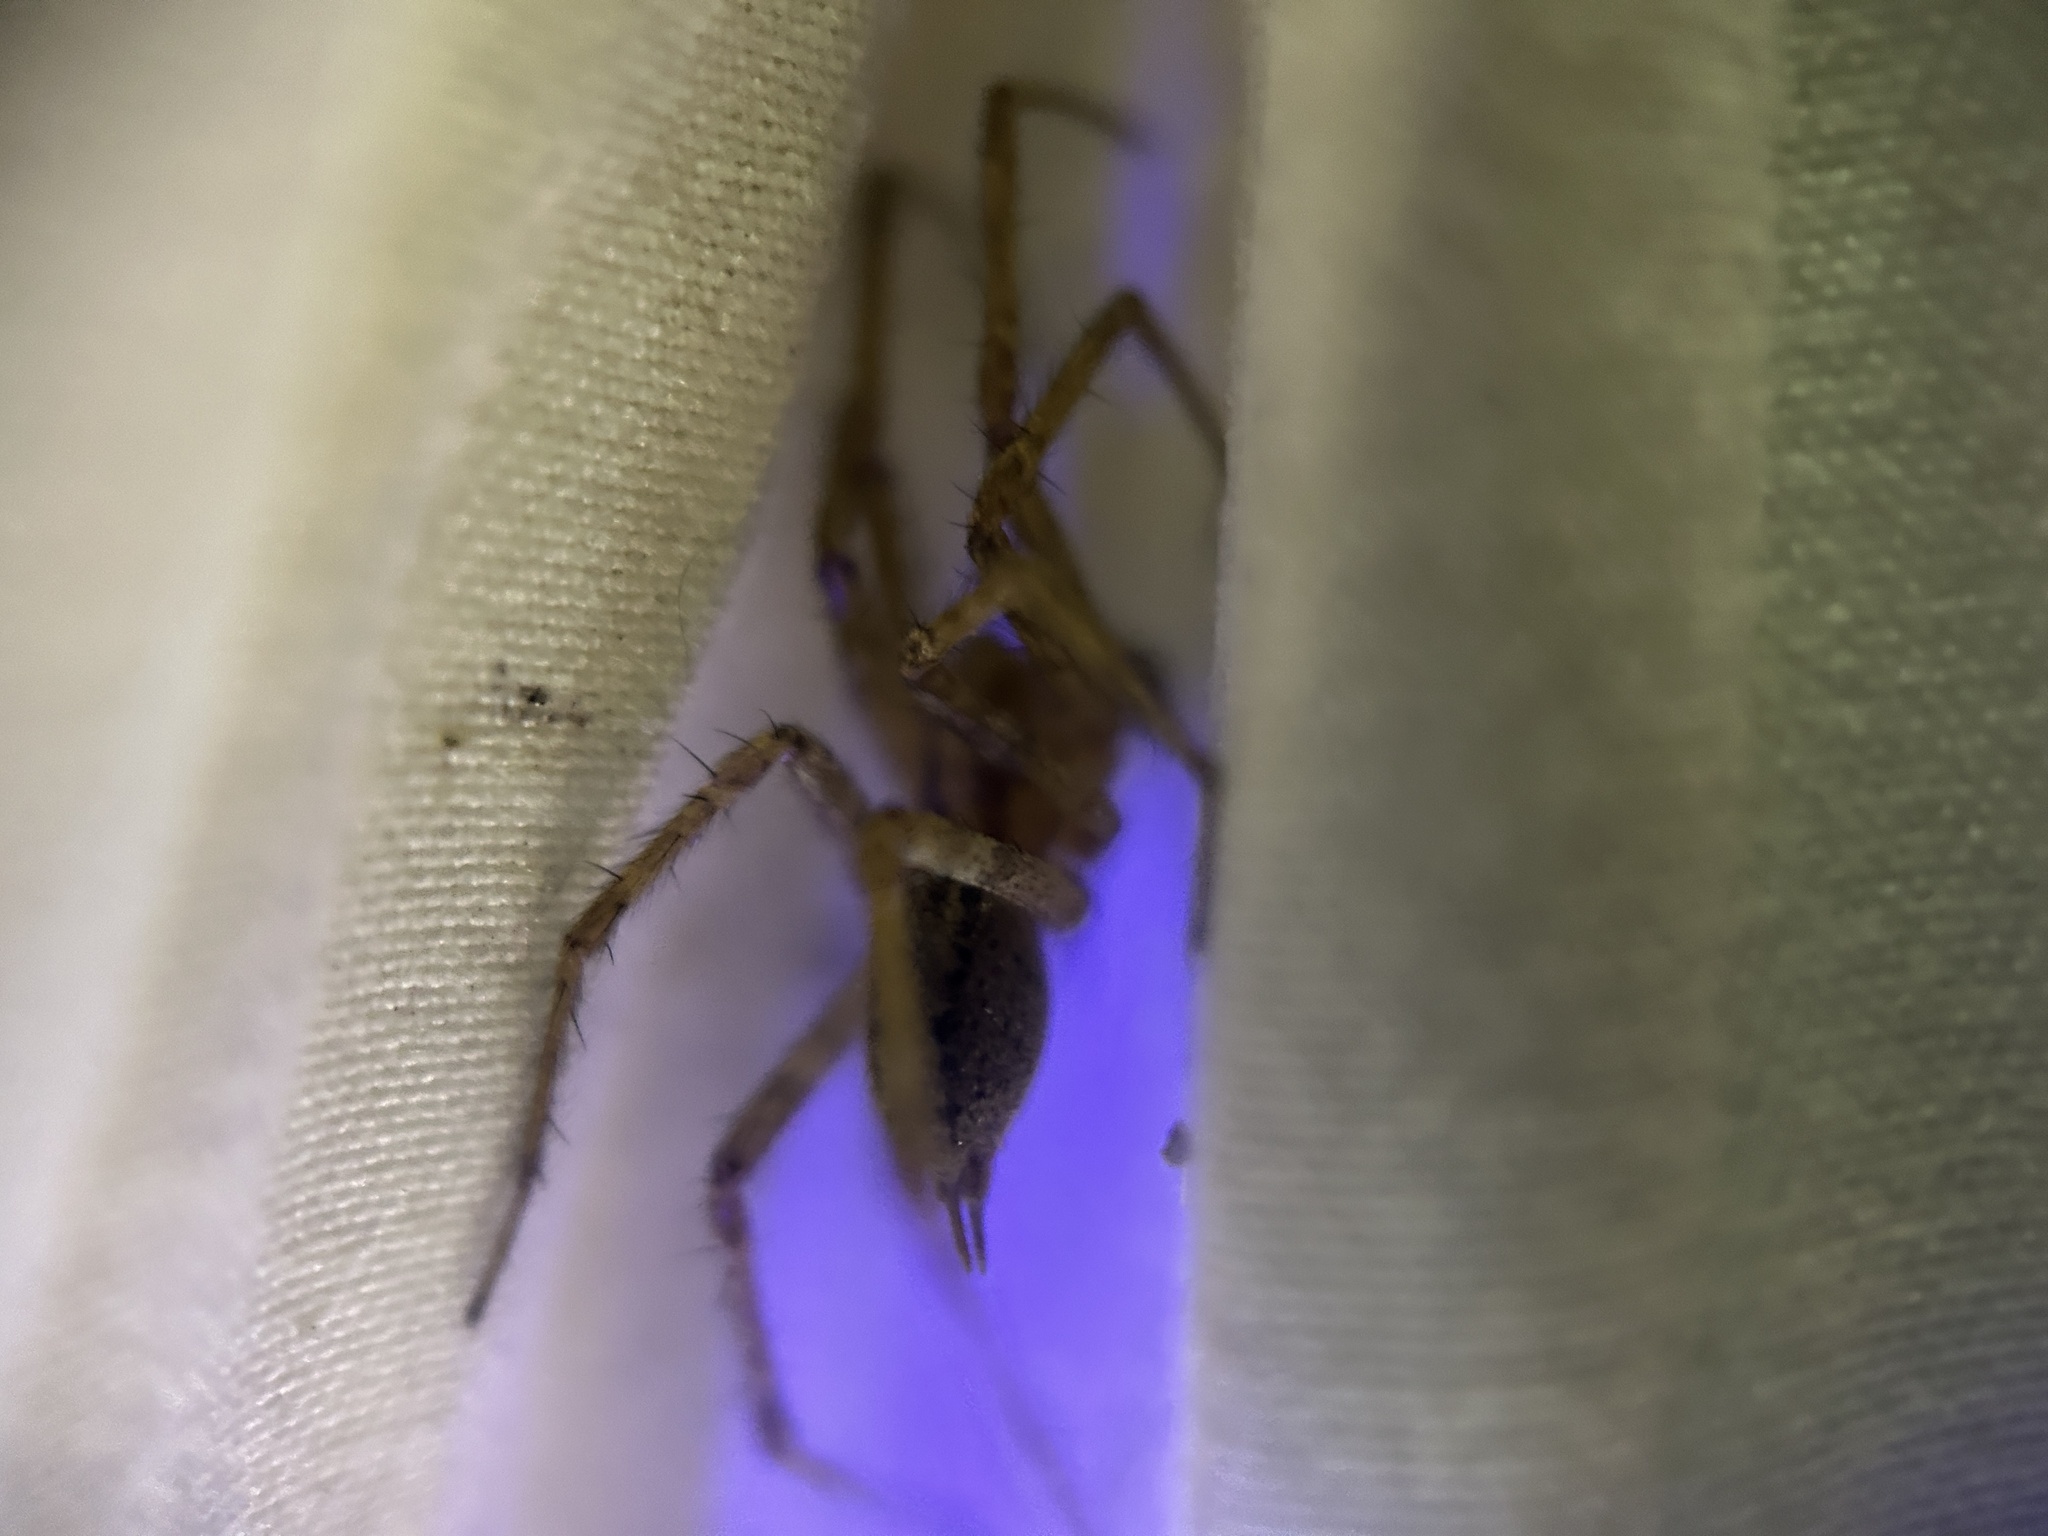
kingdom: Animalia
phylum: Arthropoda
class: Arachnida
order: Araneae
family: Agelenidae
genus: Agelenopsis
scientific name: Agelenopsis
